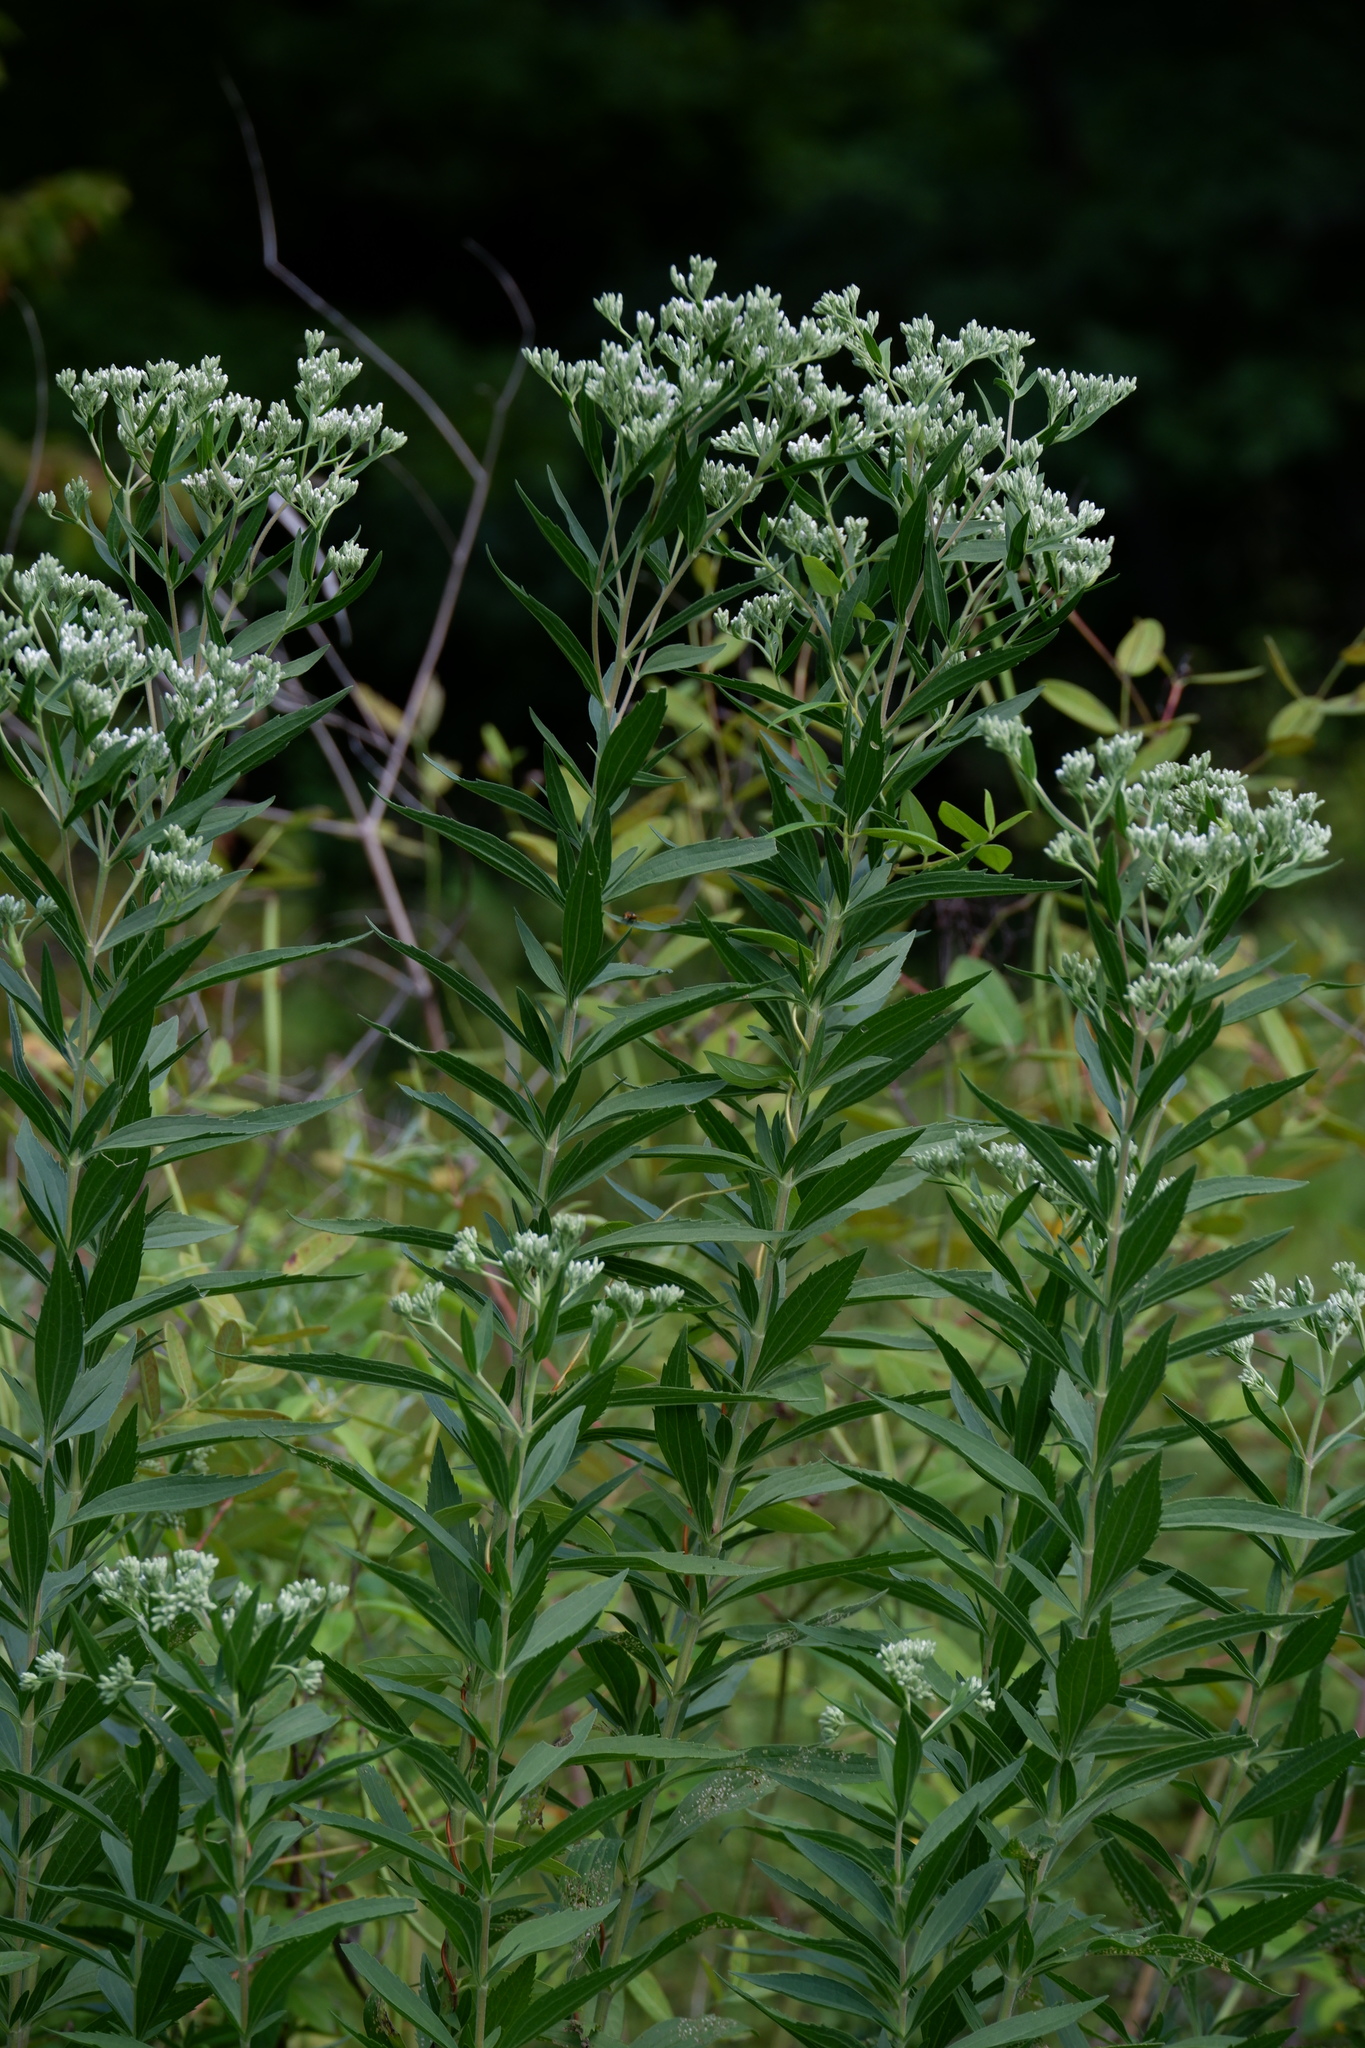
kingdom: Plantae
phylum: Tracheophyta
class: Magnoliopsida
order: Asterales
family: Asteraceae
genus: Eupatorium
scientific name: Eupatorium altissimum
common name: Tall thoroughwort
